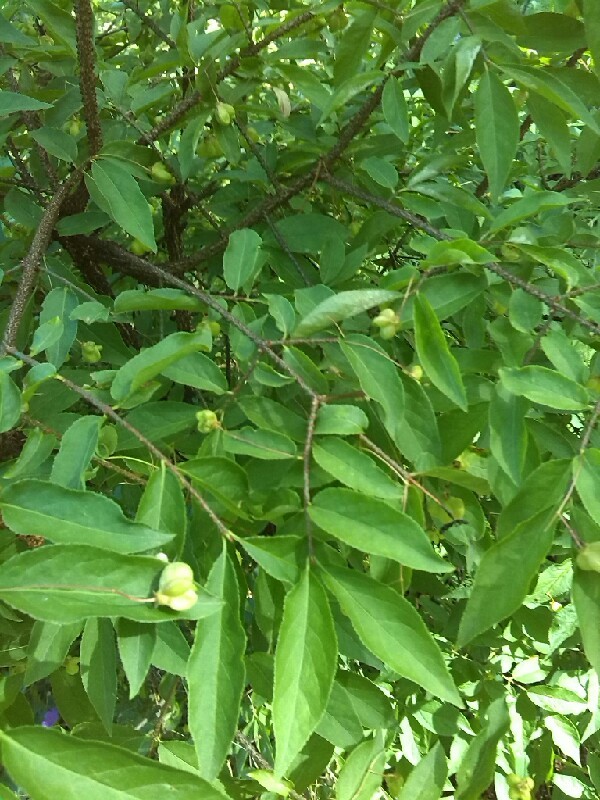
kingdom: Plantae
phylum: Tracheophyta
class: Magnoliopsida
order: Celastrales
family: Celastraceae
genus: Euonymus
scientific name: Euonymus verrucosus
